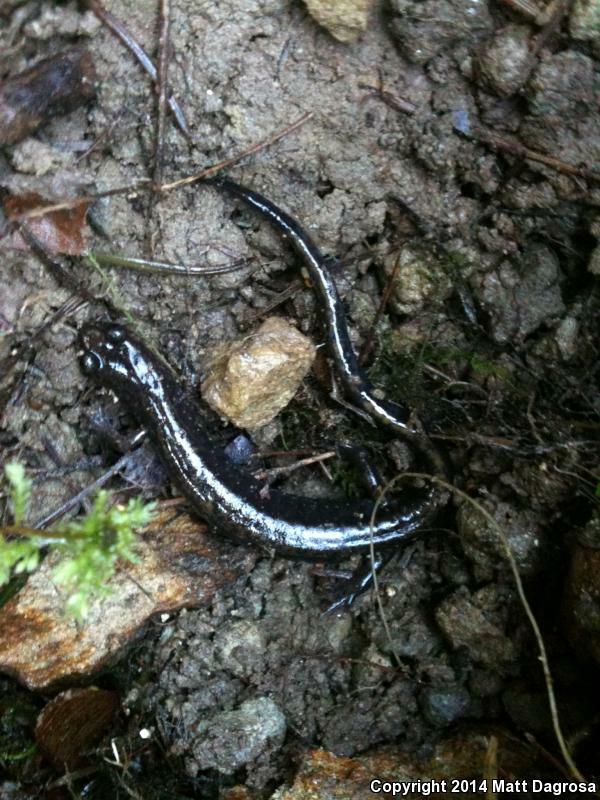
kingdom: Animalia
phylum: Chordata
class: Amphibia
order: Caudata
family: Plethodontidae
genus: Plethodon
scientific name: Plethodon dunni
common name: Dunn's salamander
